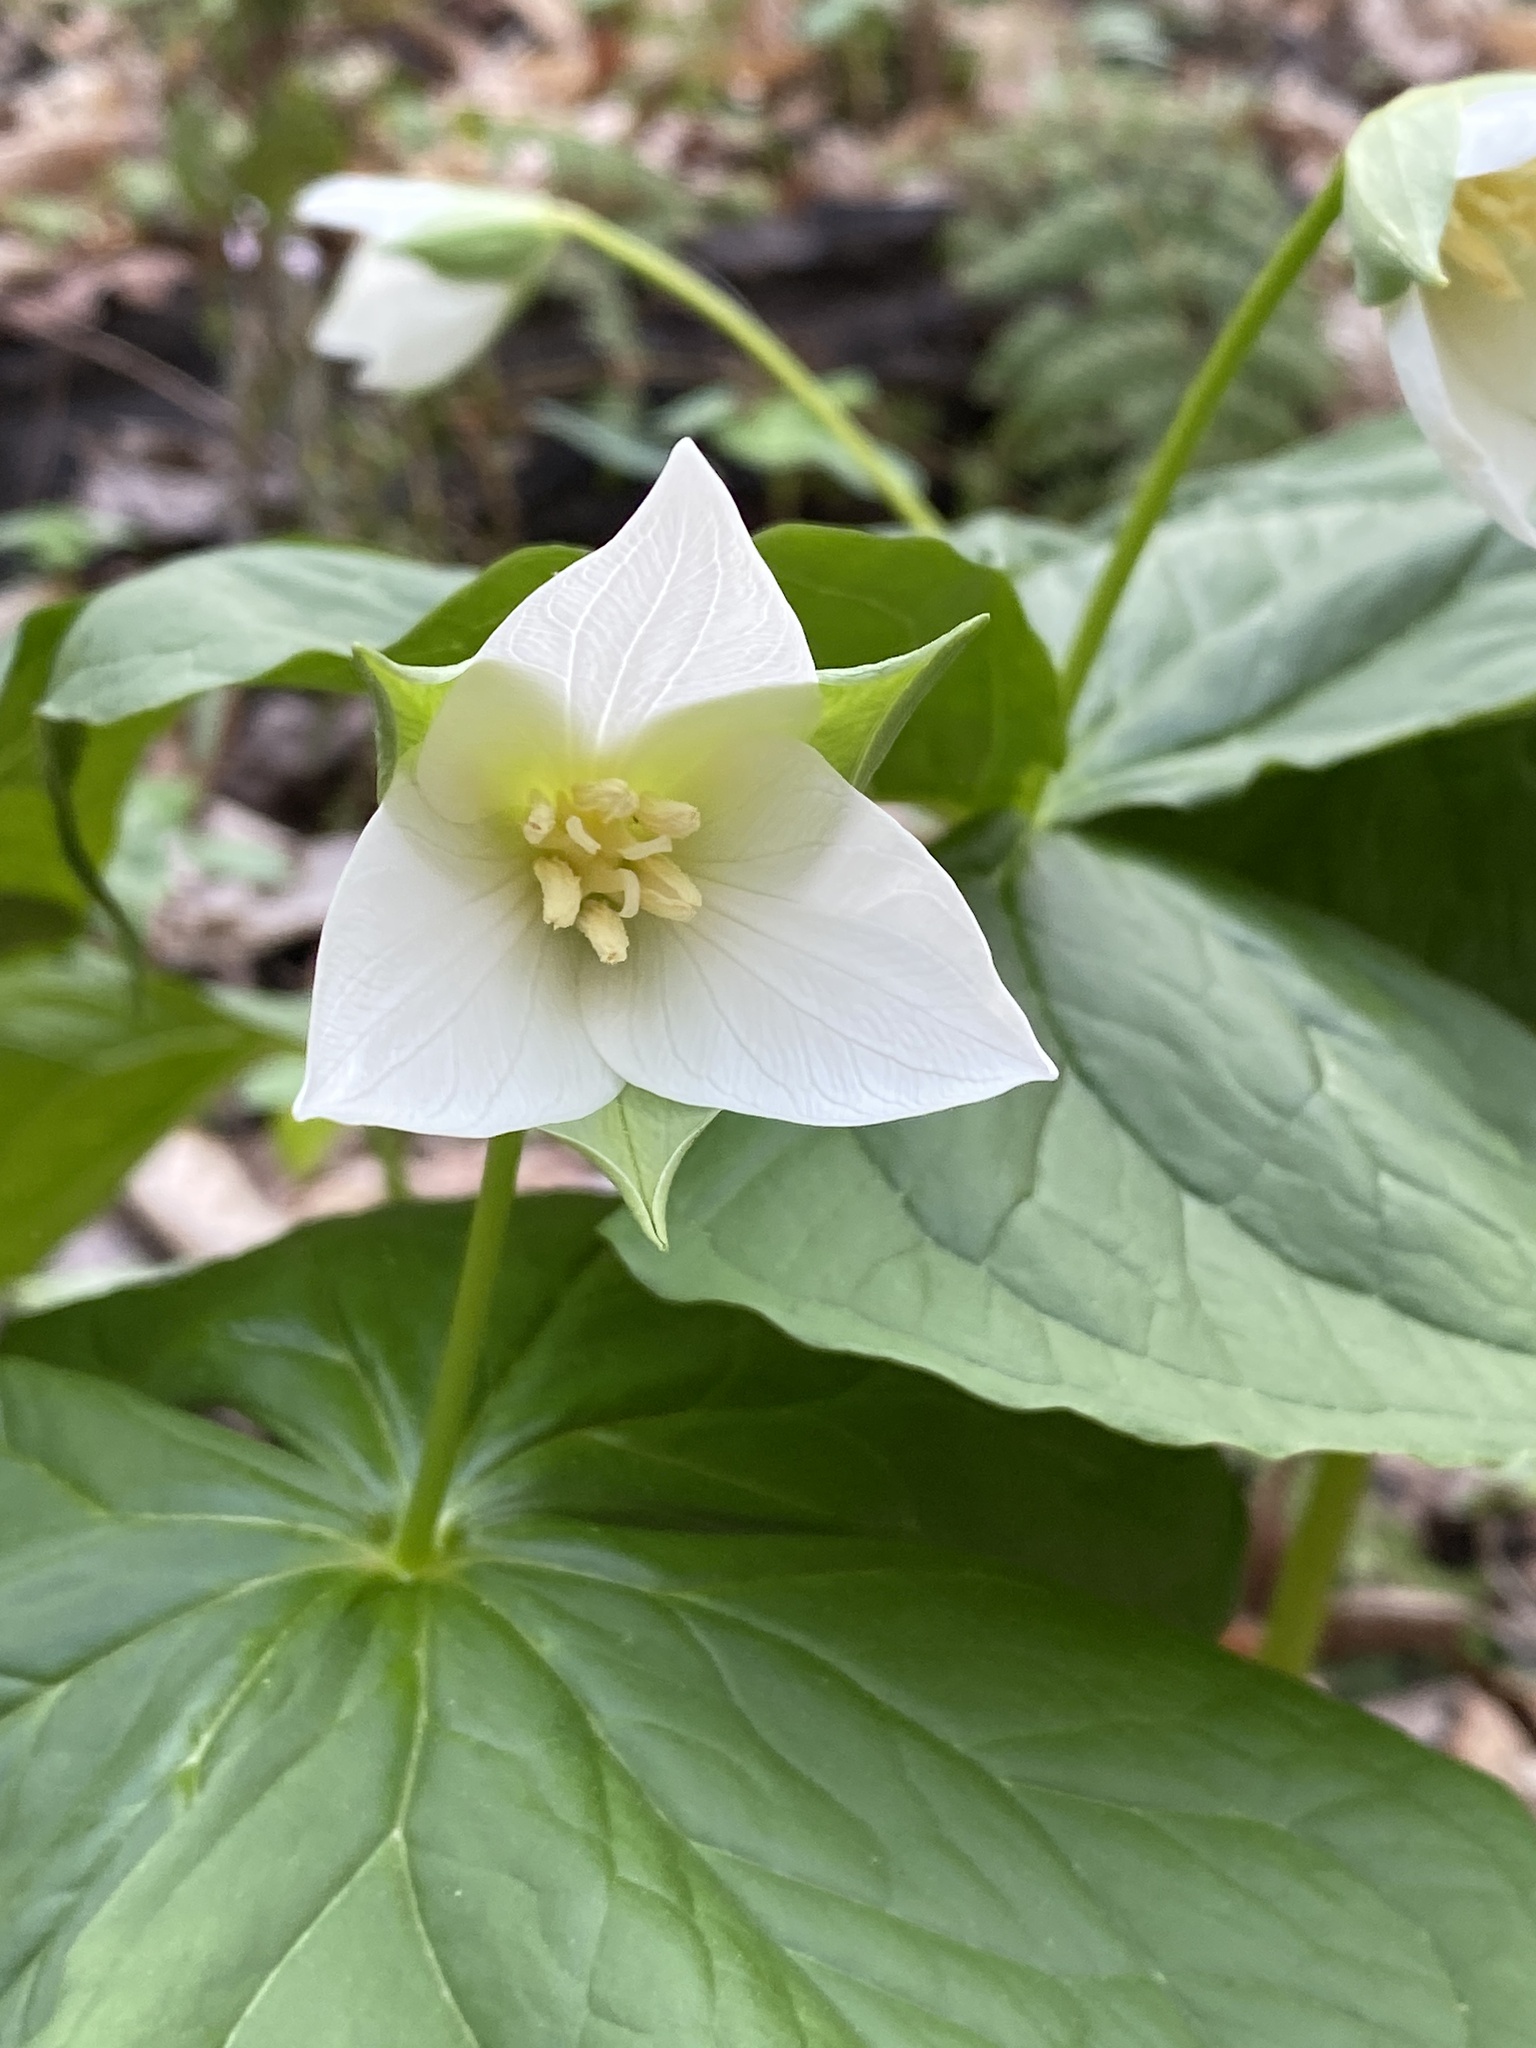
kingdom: Plantae
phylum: Tracheophyta
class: Liliopsida
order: Liliales
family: Melanthiaceae
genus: Trillium
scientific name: Trillium flexipes
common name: Drooping trillium
